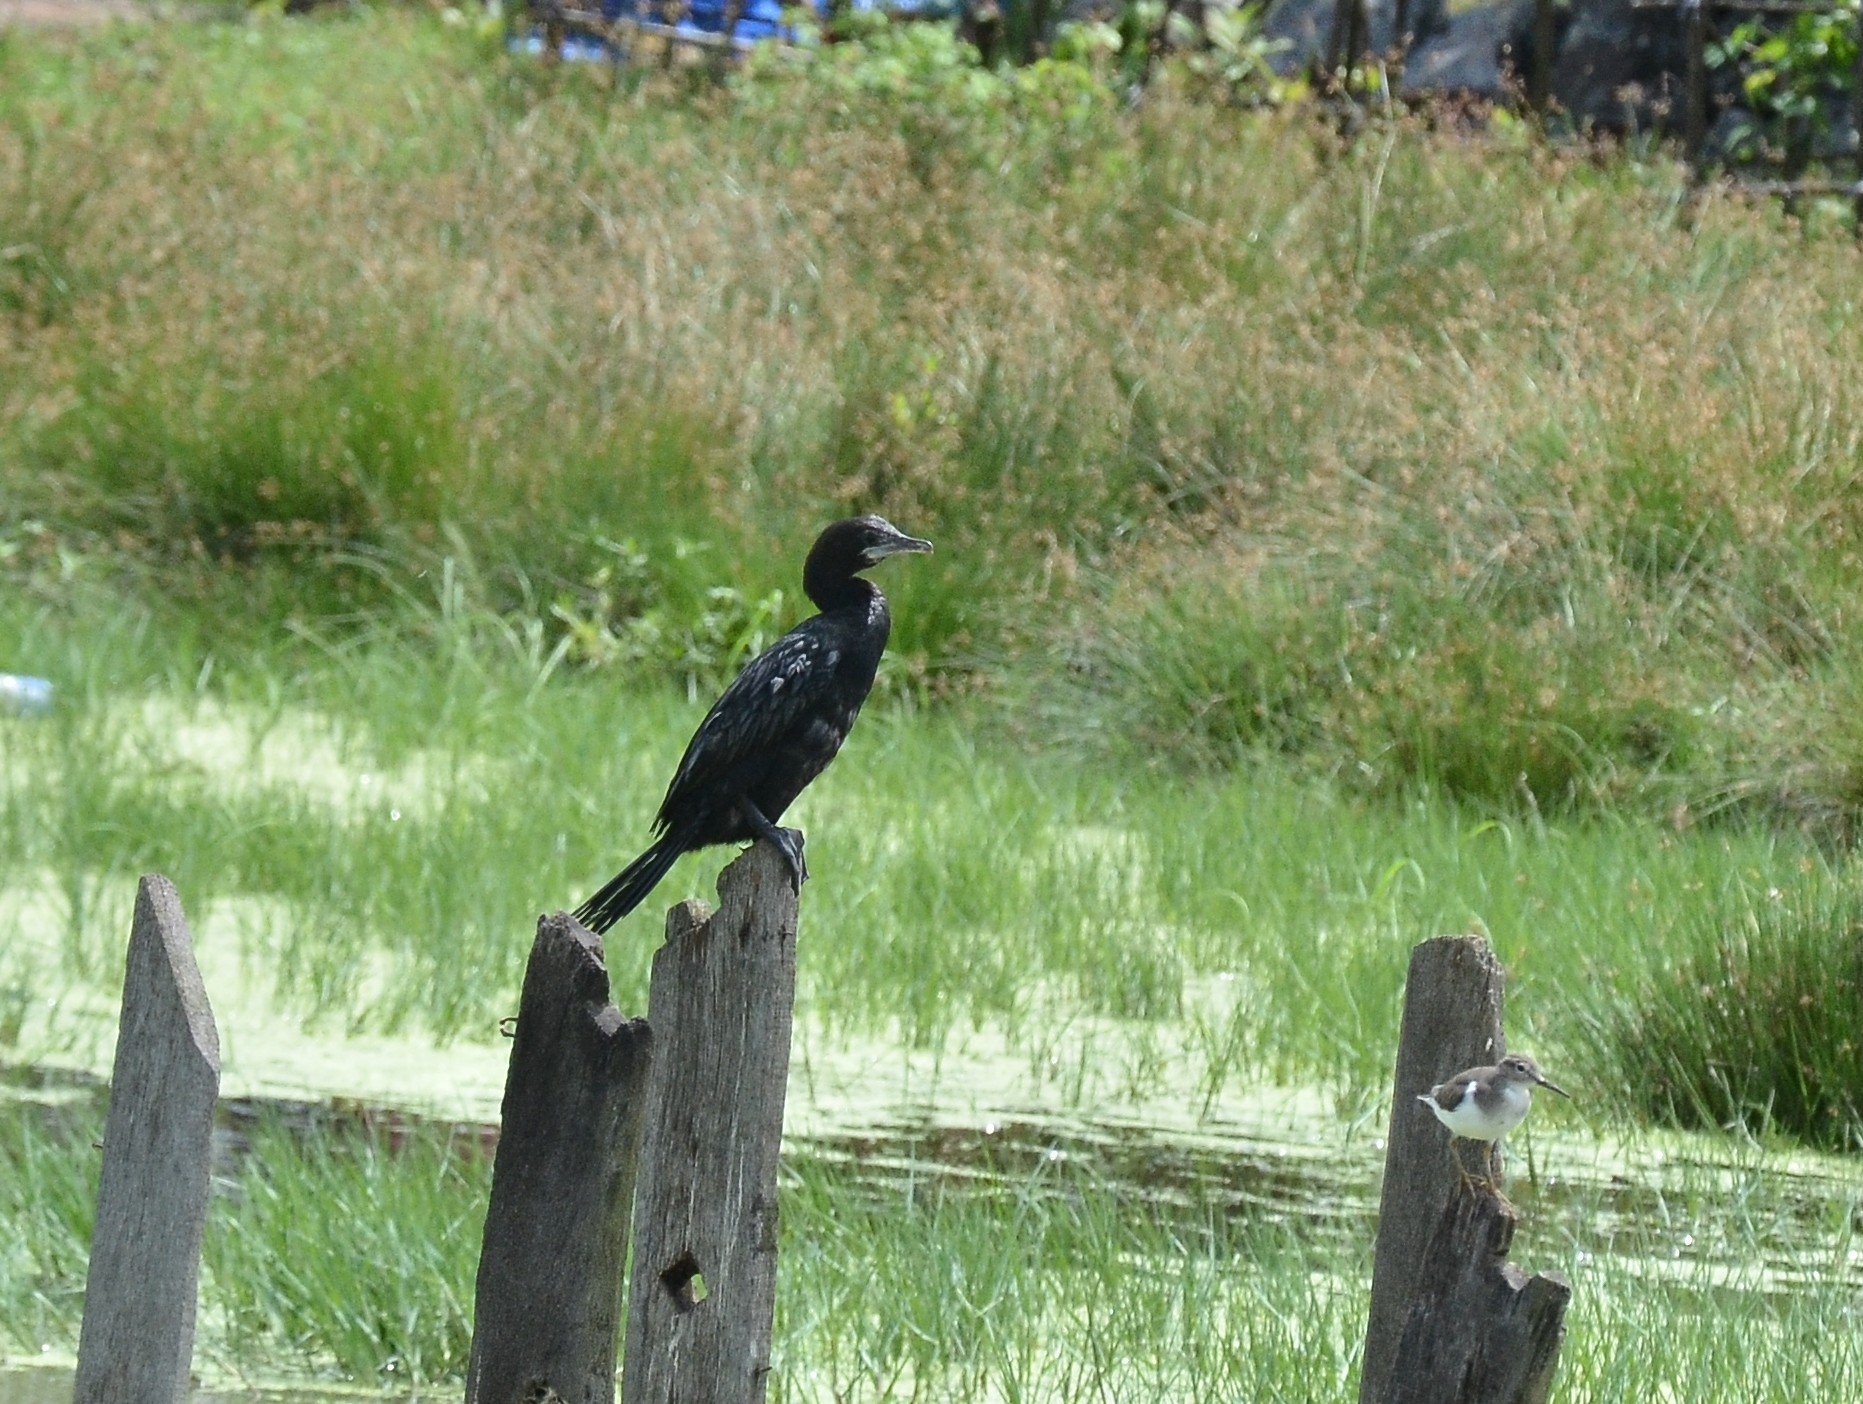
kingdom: Animalia
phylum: Chordata
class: Aves
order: Suliformes
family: Phalacrocoracidae
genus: Microcarbo
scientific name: Microcarbo niger
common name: Little cormorant
